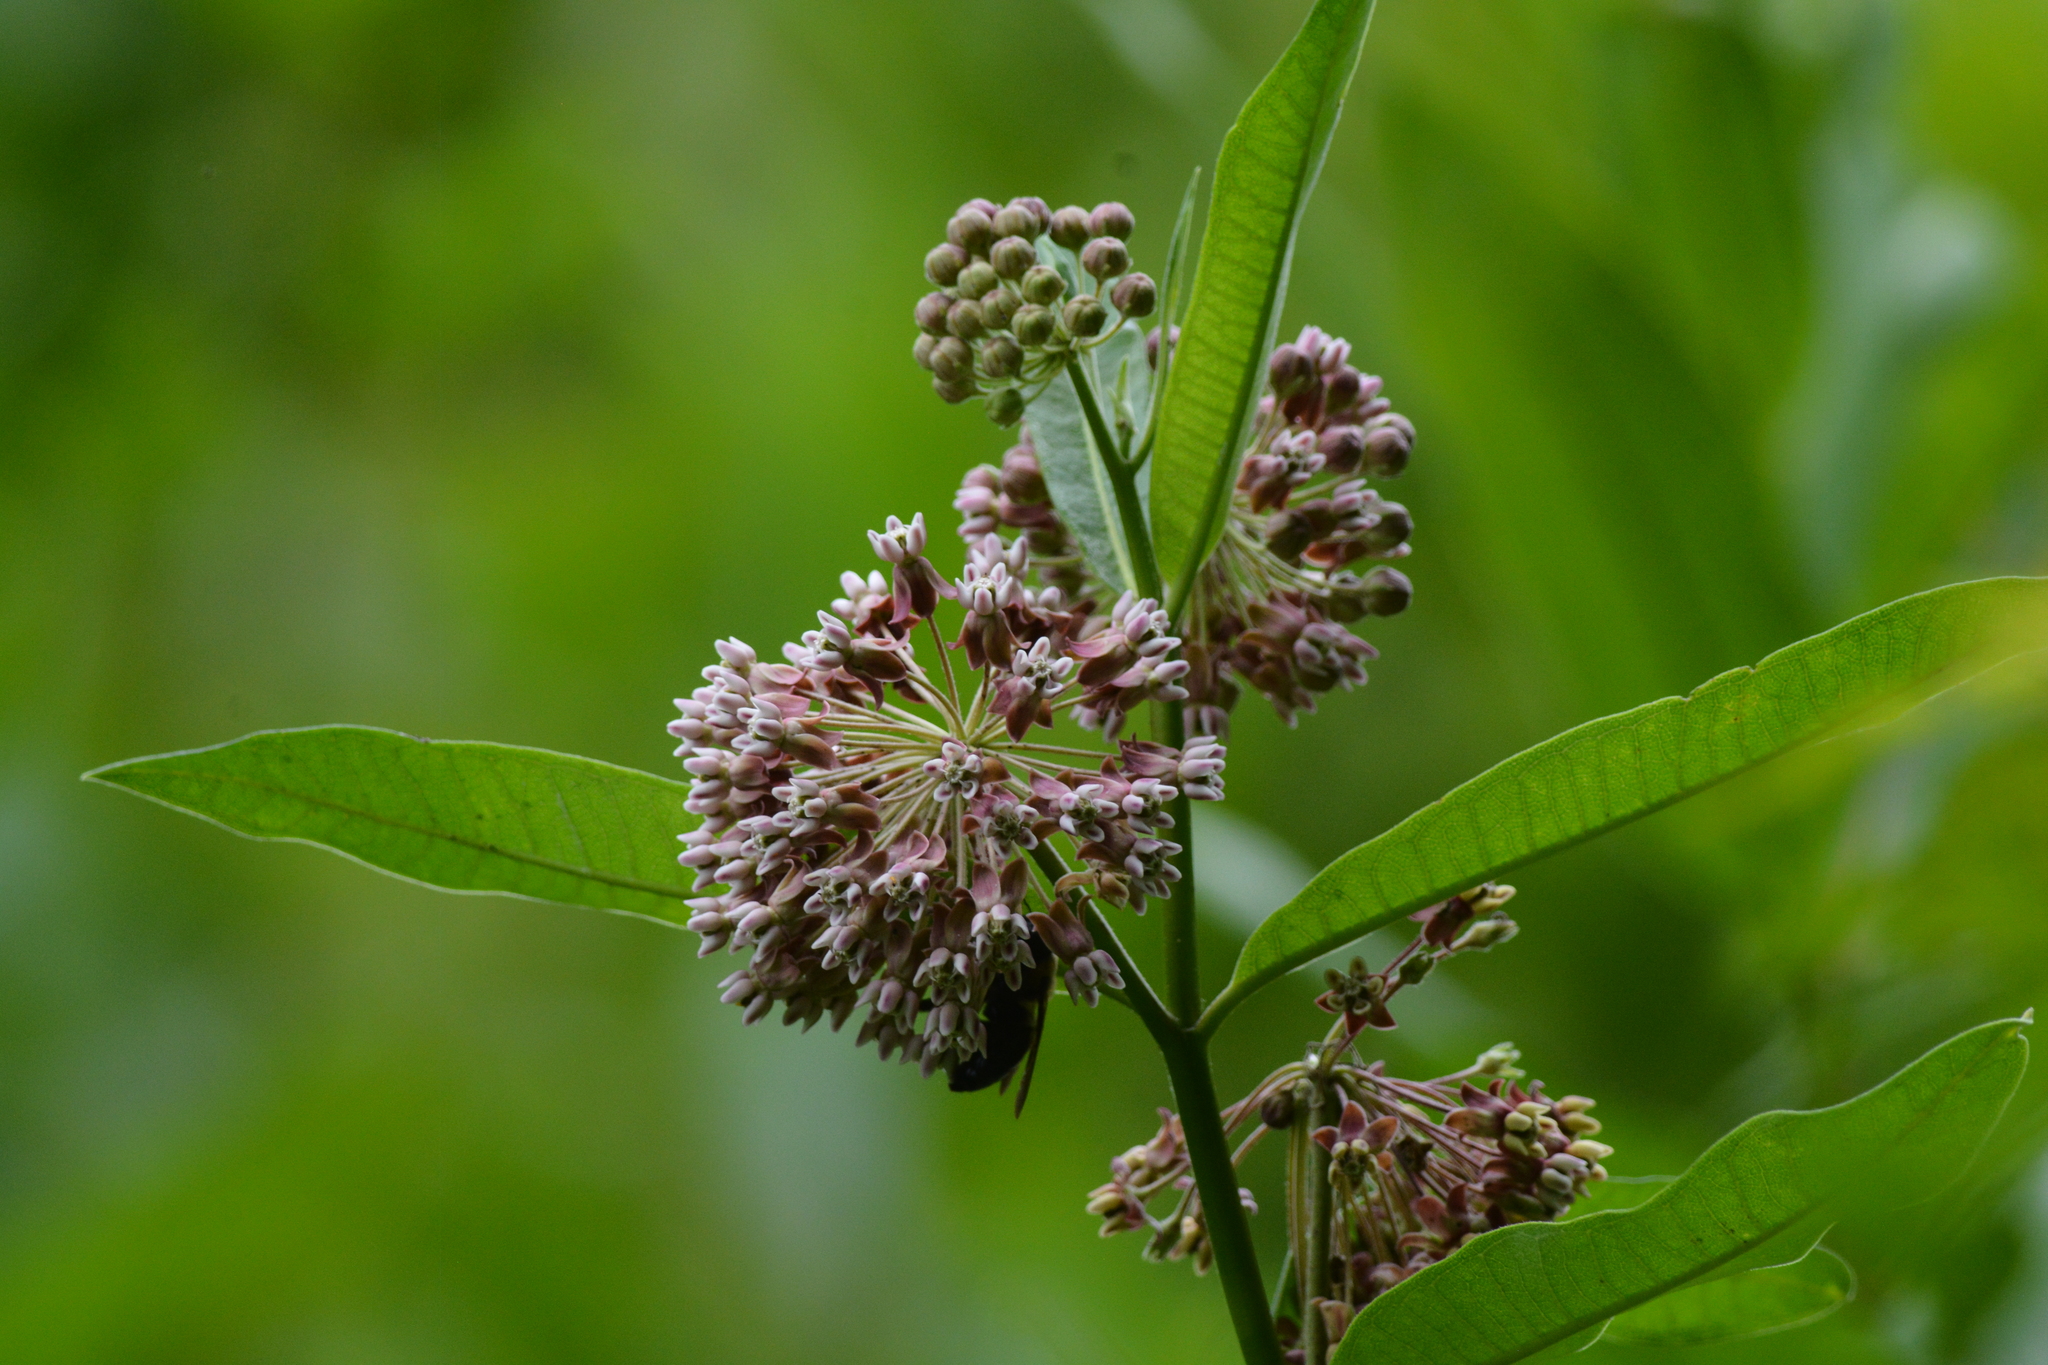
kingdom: Plantae
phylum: Tracheophyta
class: Magnoliopsida
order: Gentianales
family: Apocynaceae
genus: Asclepias
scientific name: Asclepias syriaca
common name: Common milkweed
